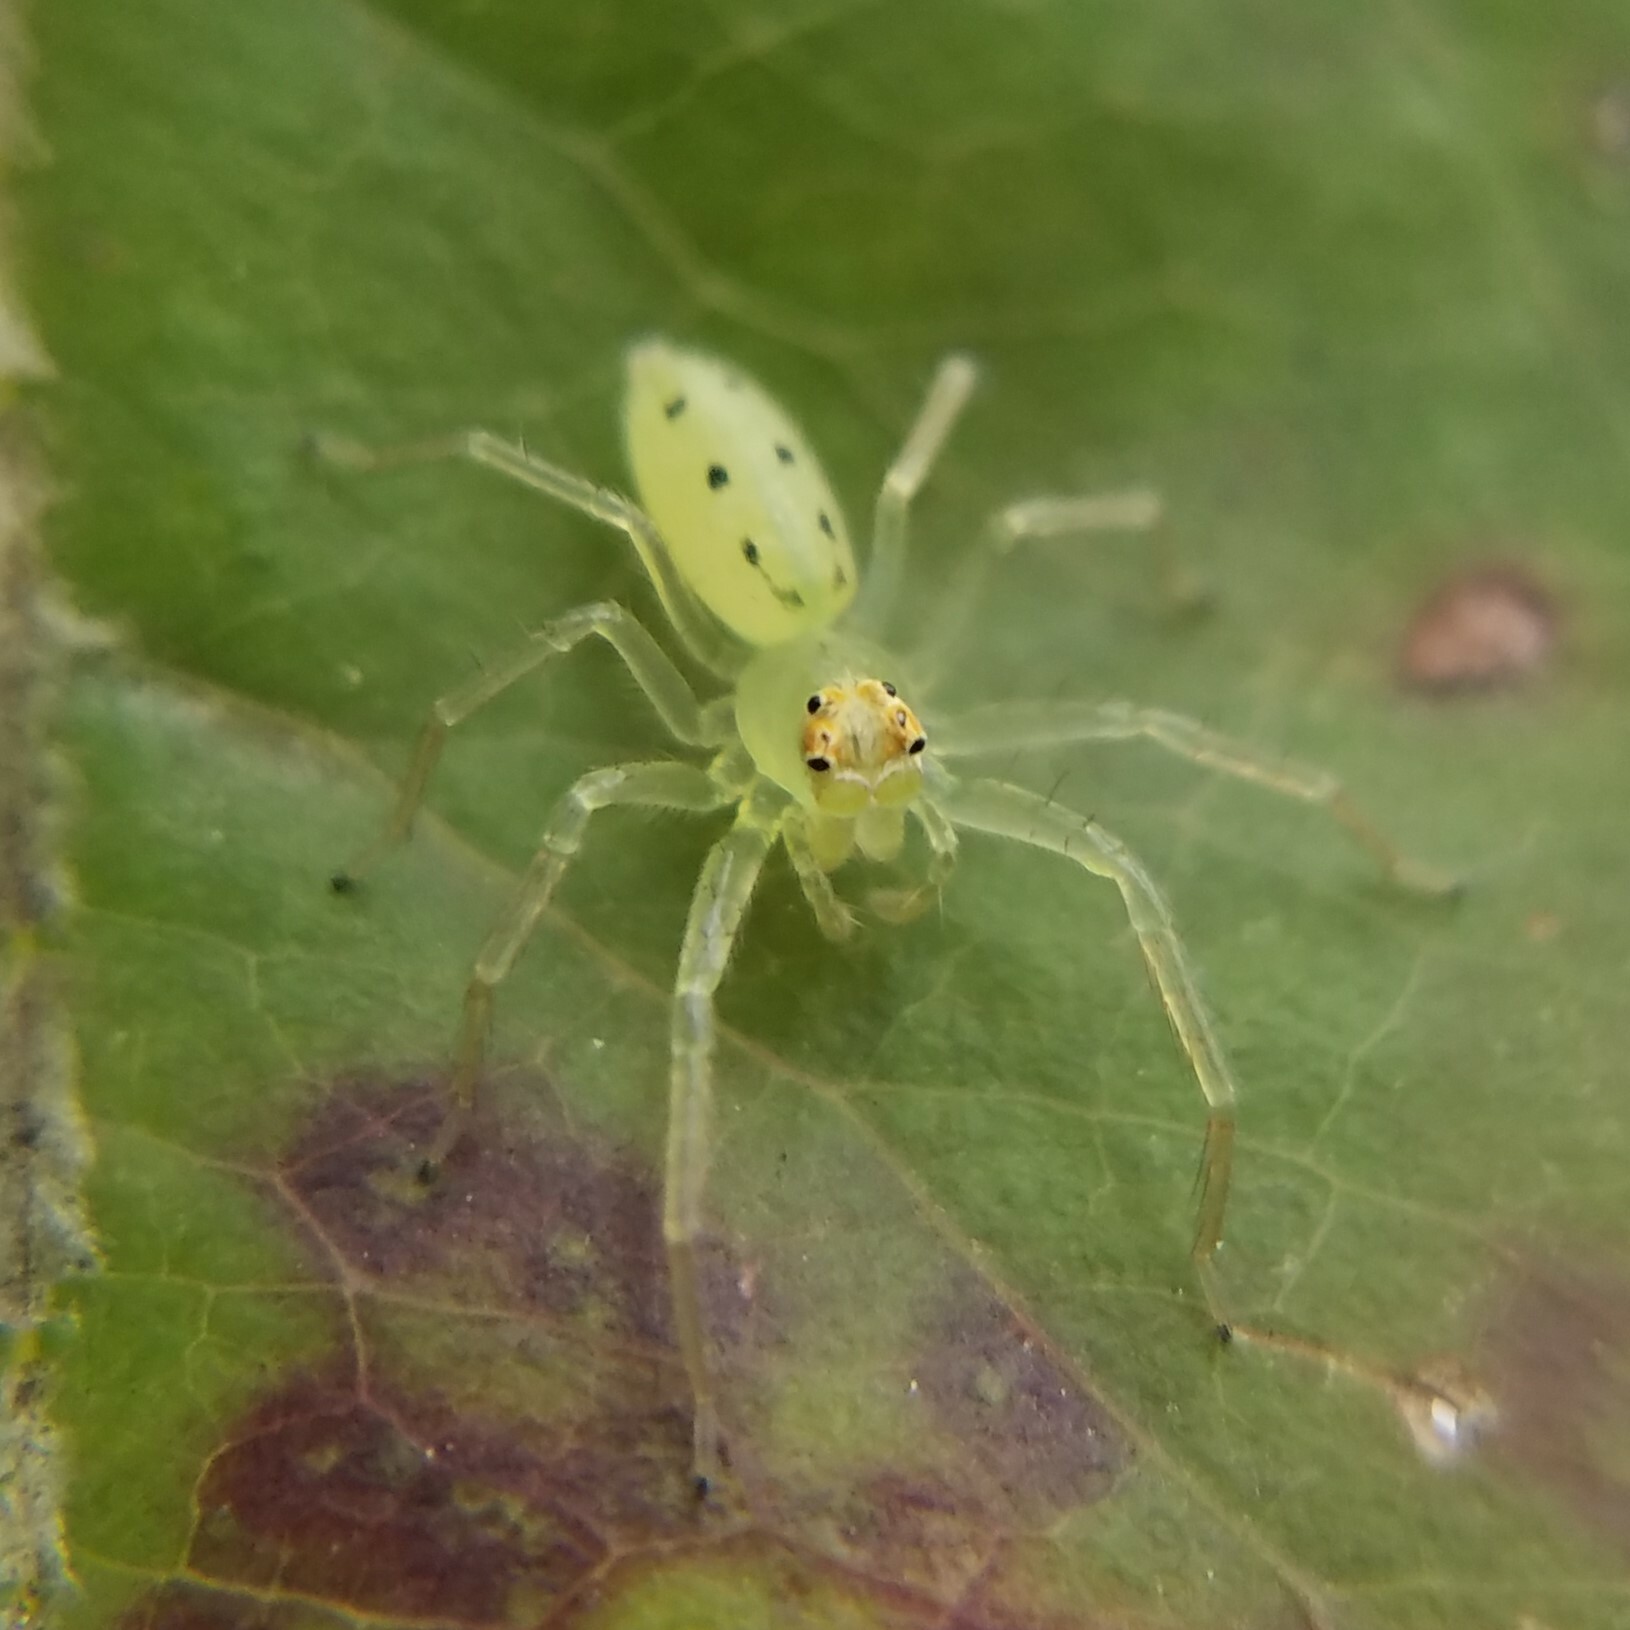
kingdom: Animalia
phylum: Arthropoda
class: Arachnida
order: Araneae
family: Salticidae
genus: Lyssomanes
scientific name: Lyssomanes viridis
